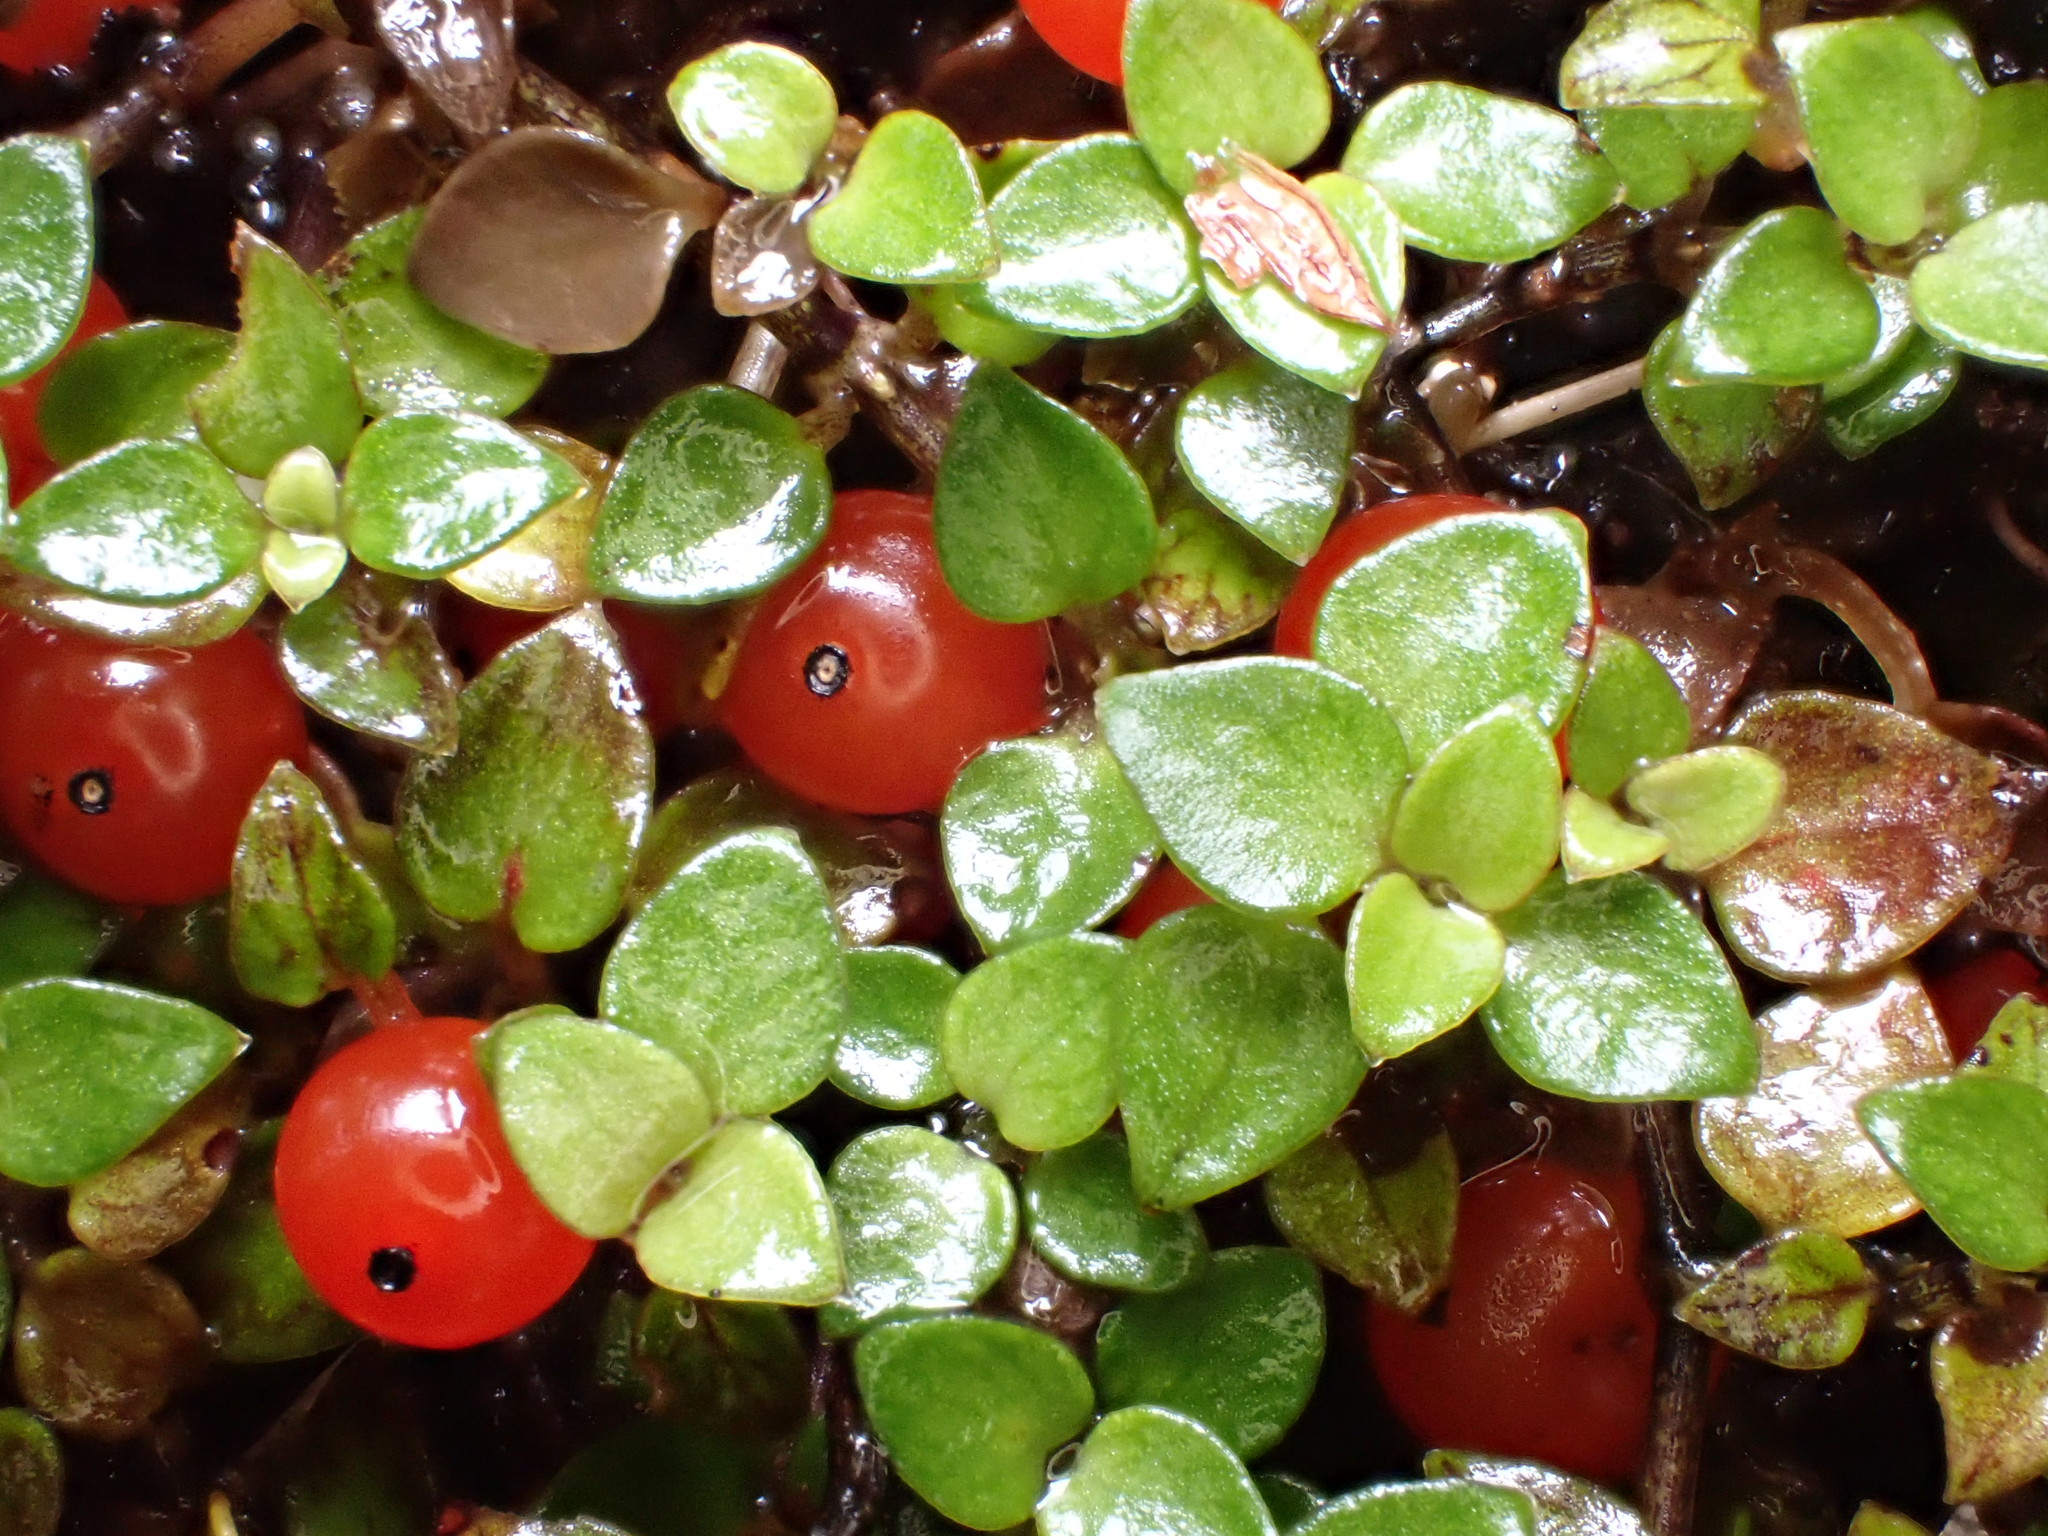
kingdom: Plantae
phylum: Tracheophyta
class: Magnoliopsida
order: Gentianales
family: Rubiaceae
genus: Nertera
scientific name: Nertera granadensis
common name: Beadplant
